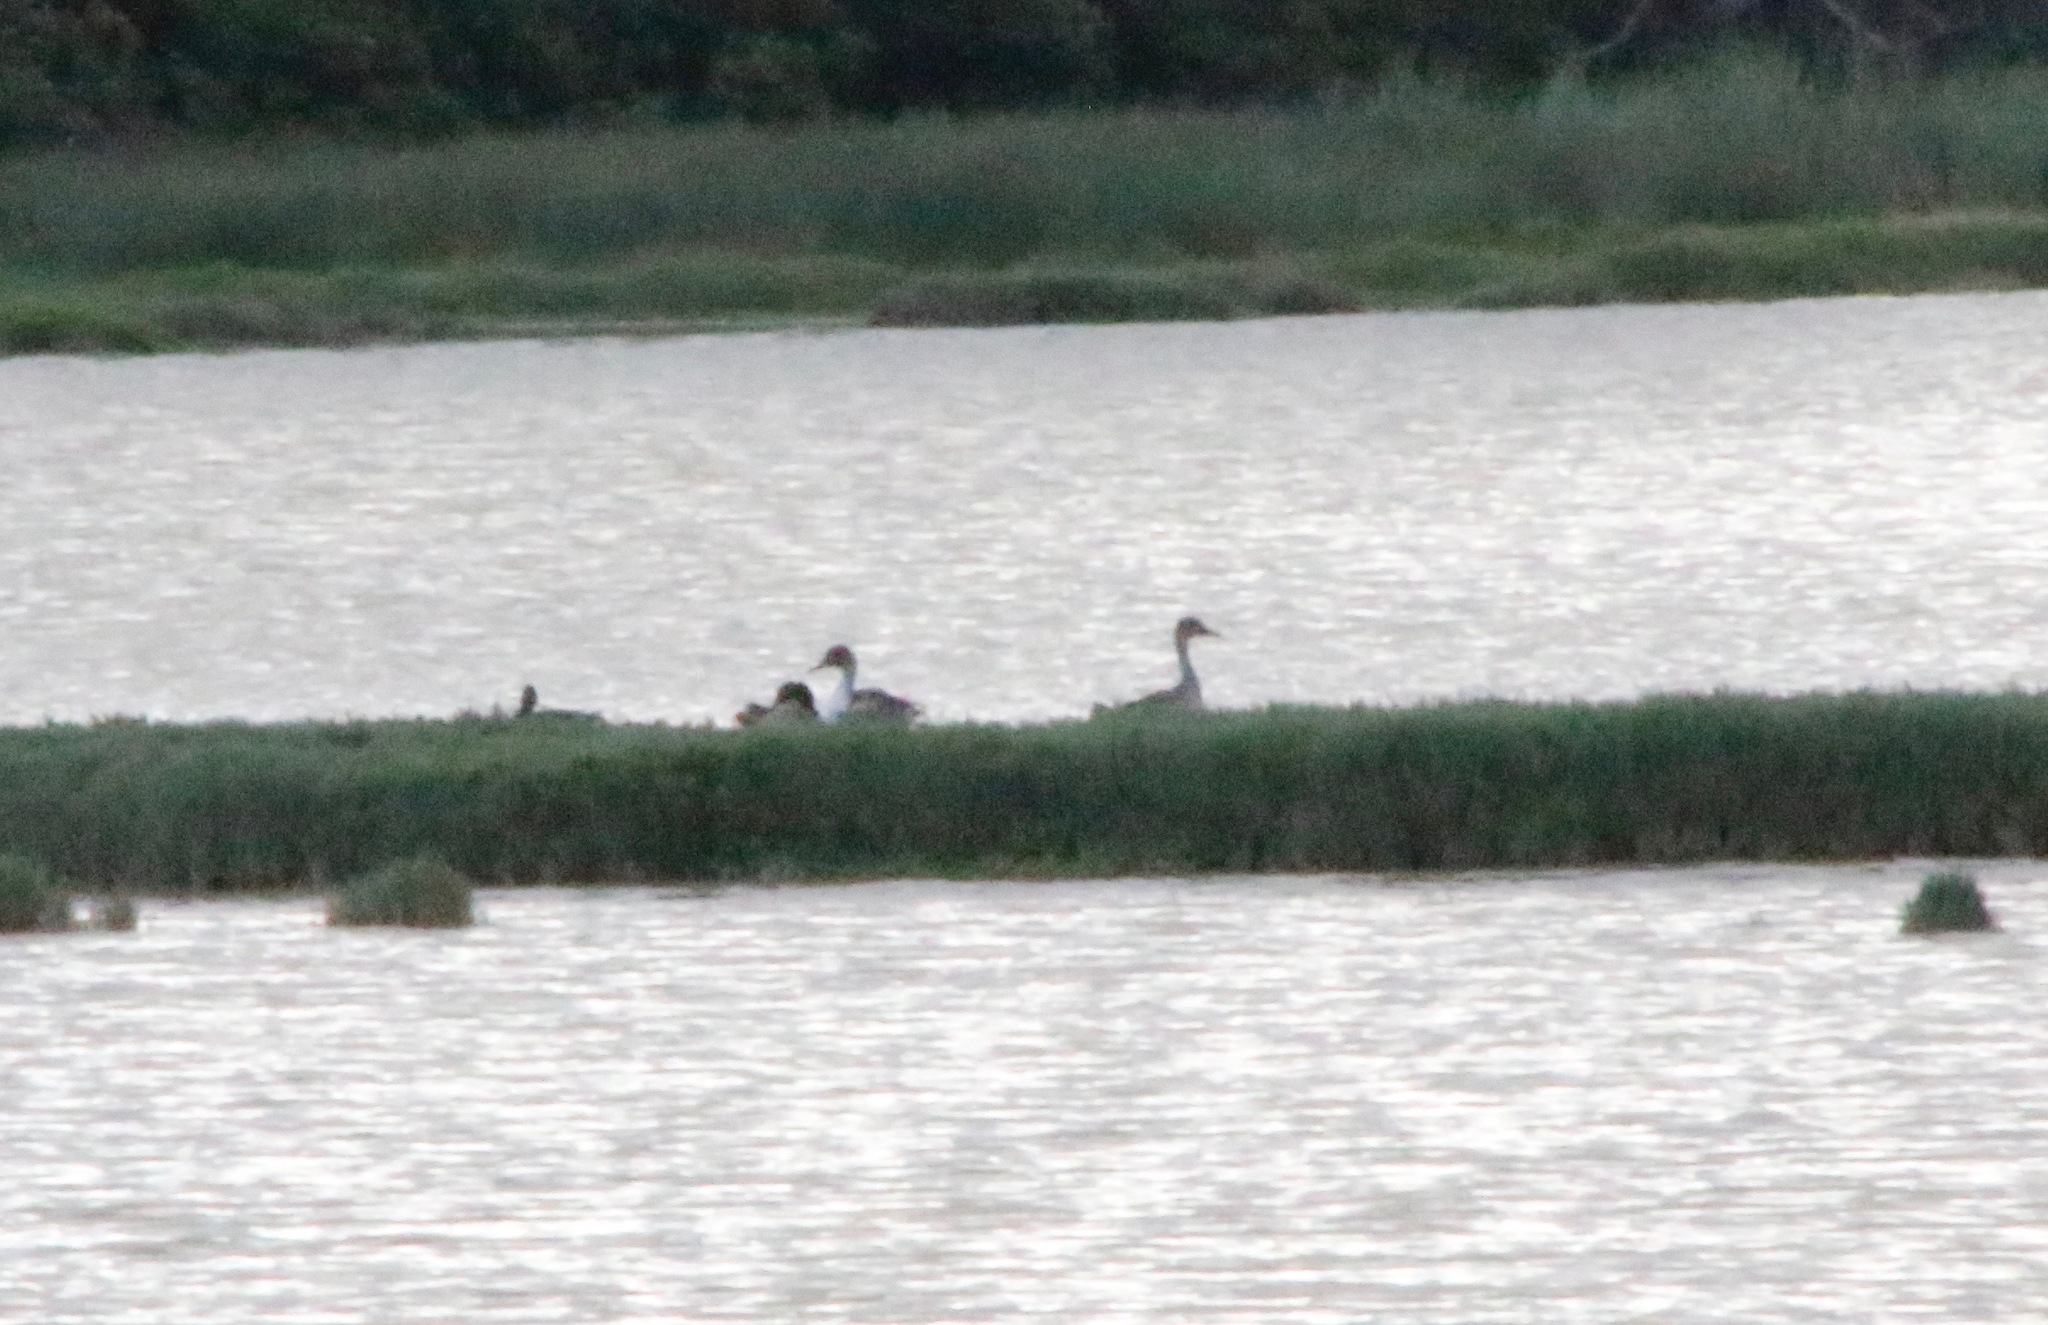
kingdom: Animalia
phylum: Chordata
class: Aves
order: Anseriformes
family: Anatidae
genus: Anas
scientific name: Anas acuta
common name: Northern pintail
